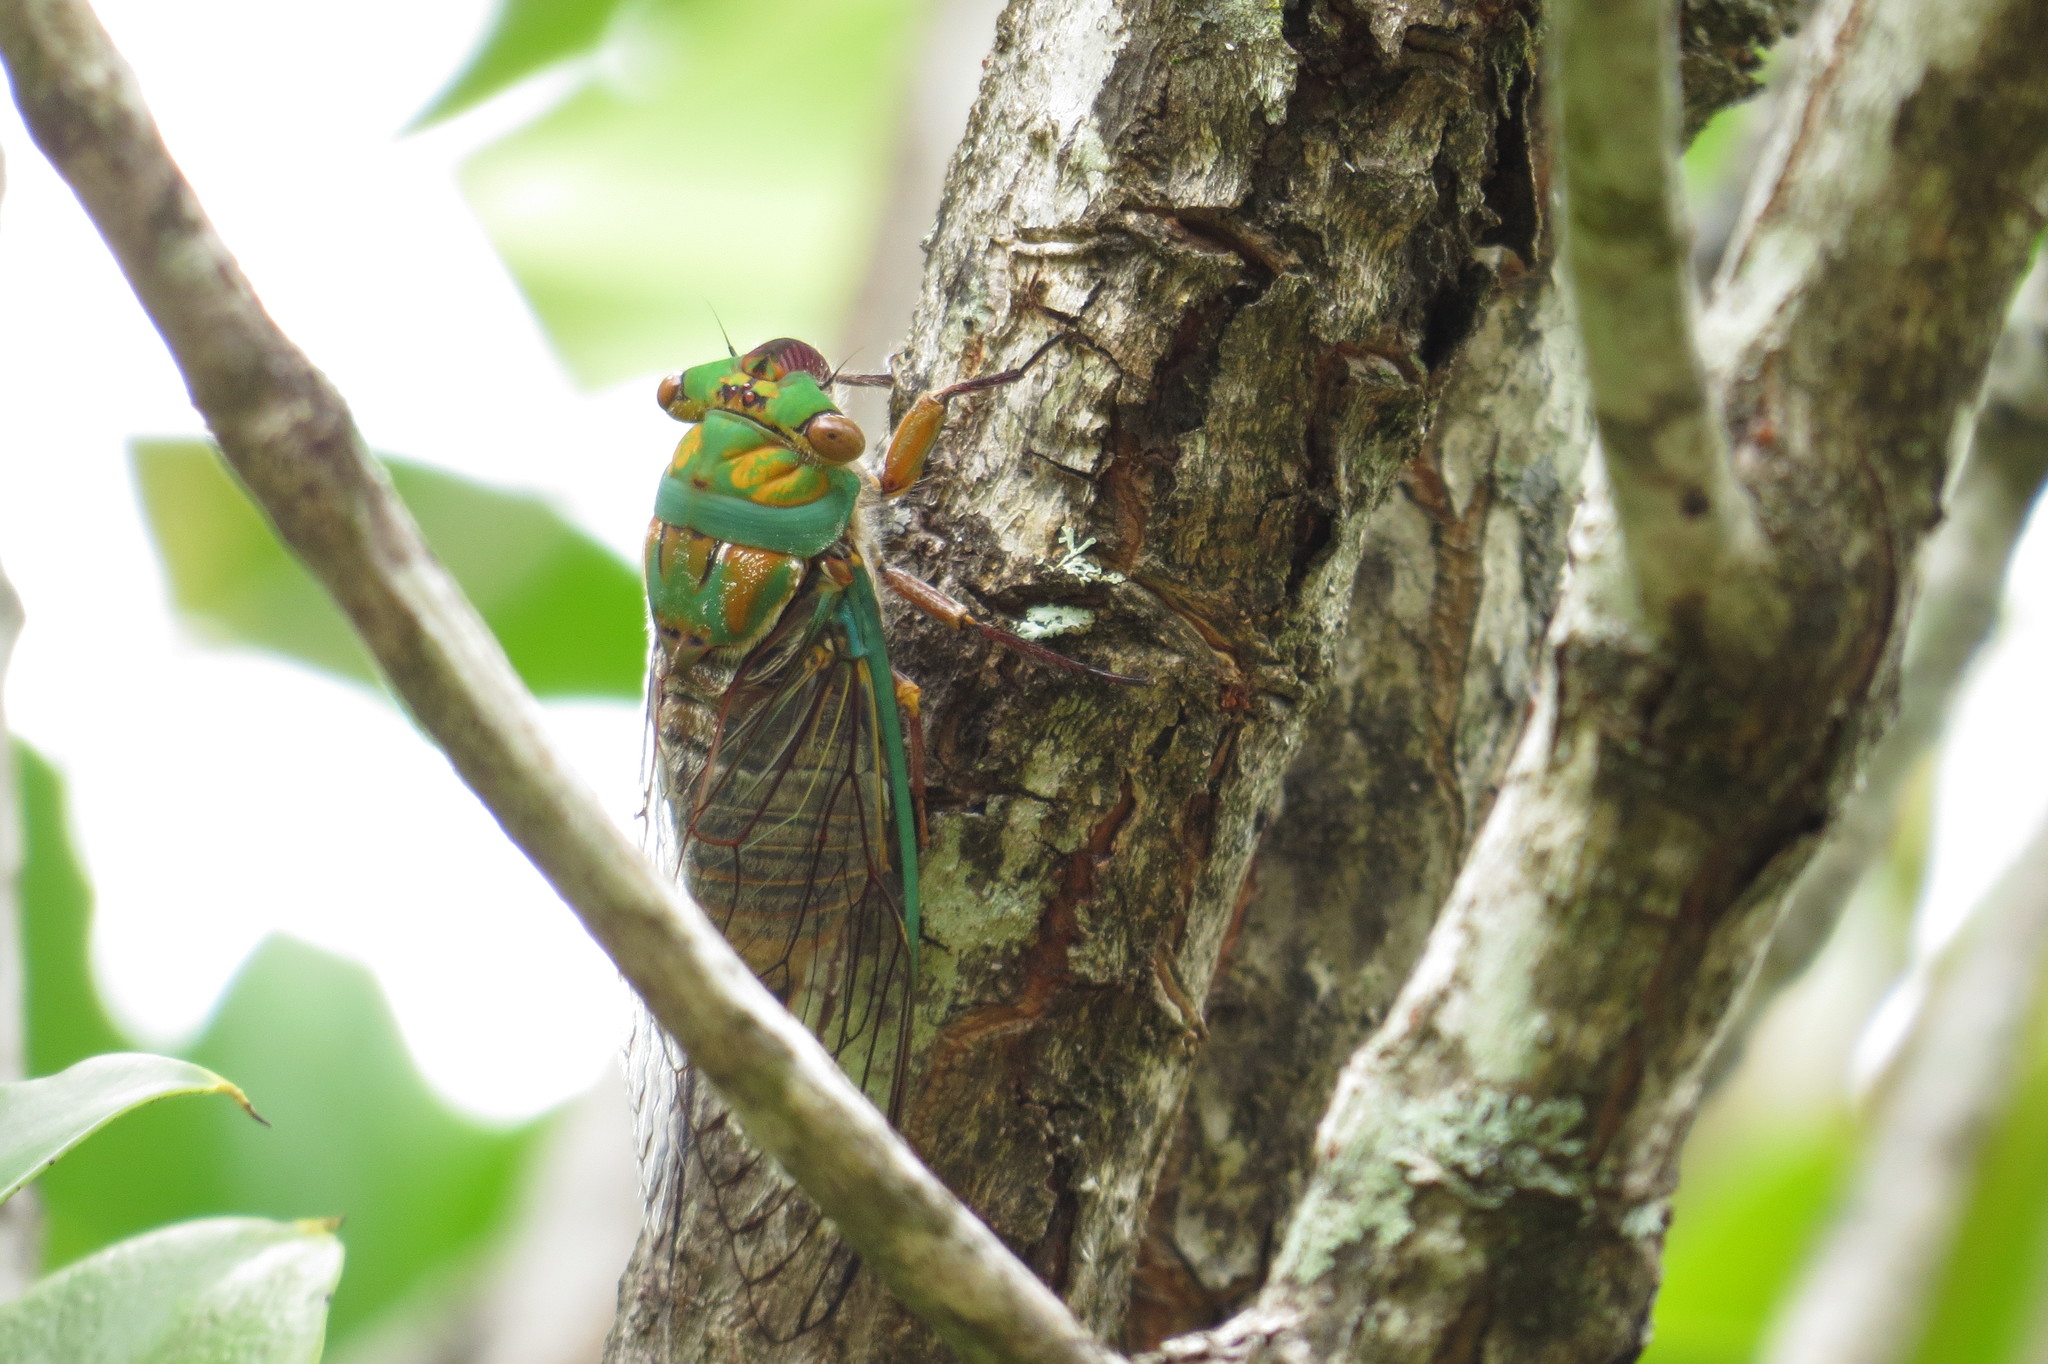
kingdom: Animalia
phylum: Arthropoda
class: Insecta
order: Hemiptera
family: Cicadidae
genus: Macrotristria
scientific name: Macrotristria sylvara
